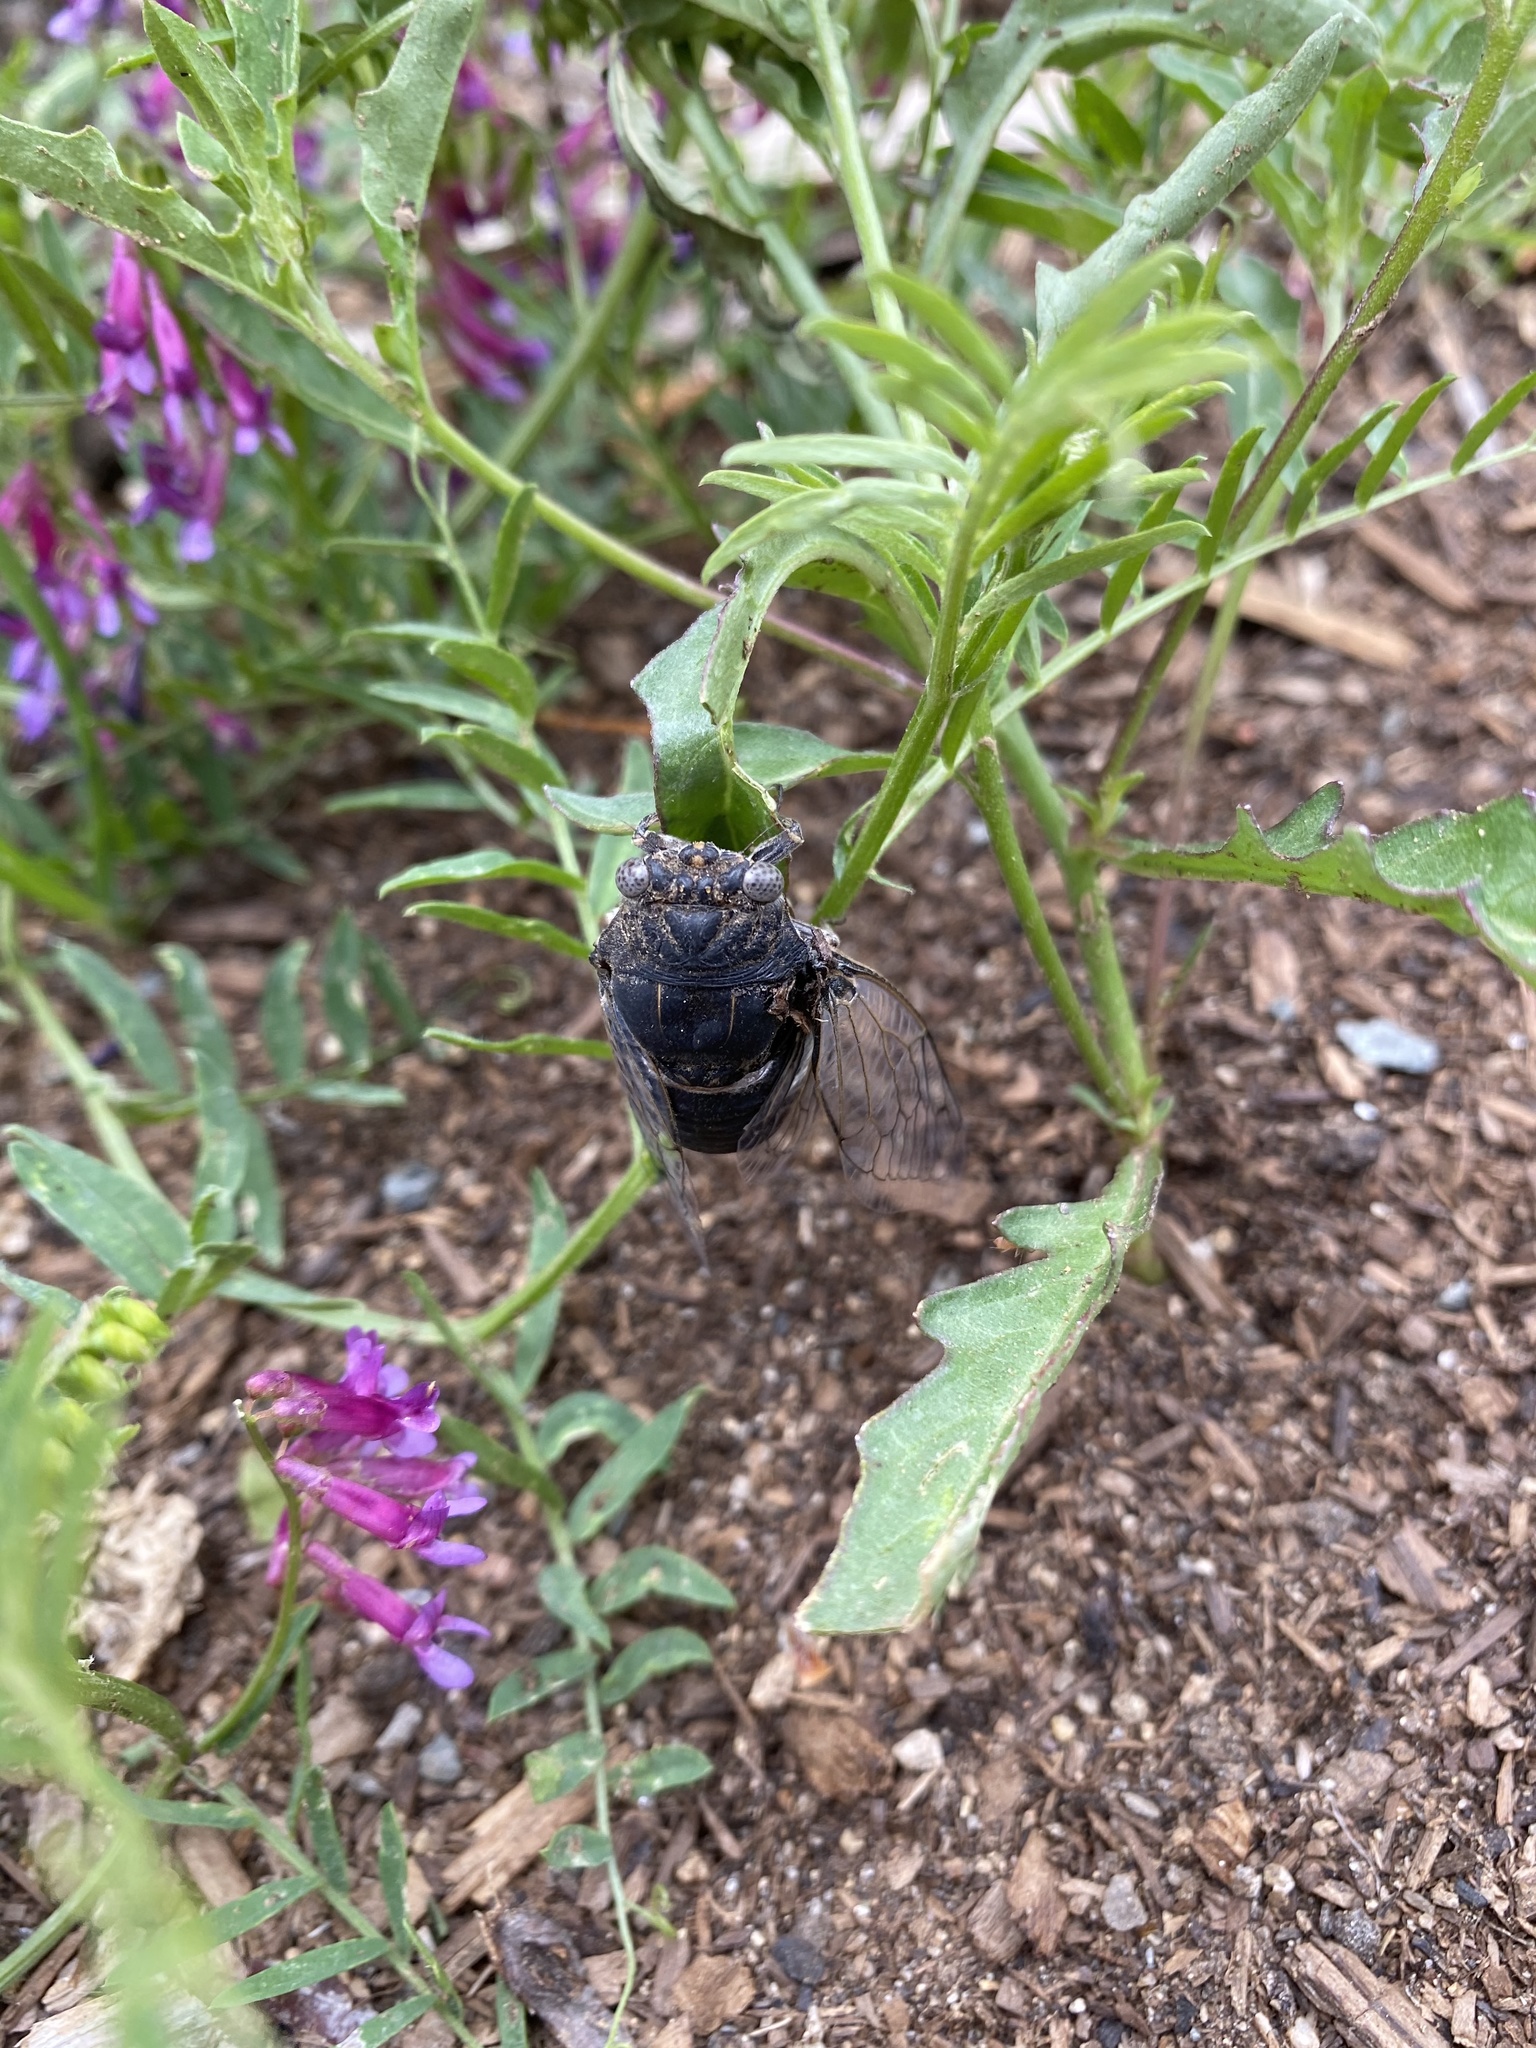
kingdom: Animalia
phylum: Arthropoda
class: Insecta
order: Hemiptera
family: Cicadidae
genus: Cacama
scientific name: Cacama valvata
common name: Cactus dodger
